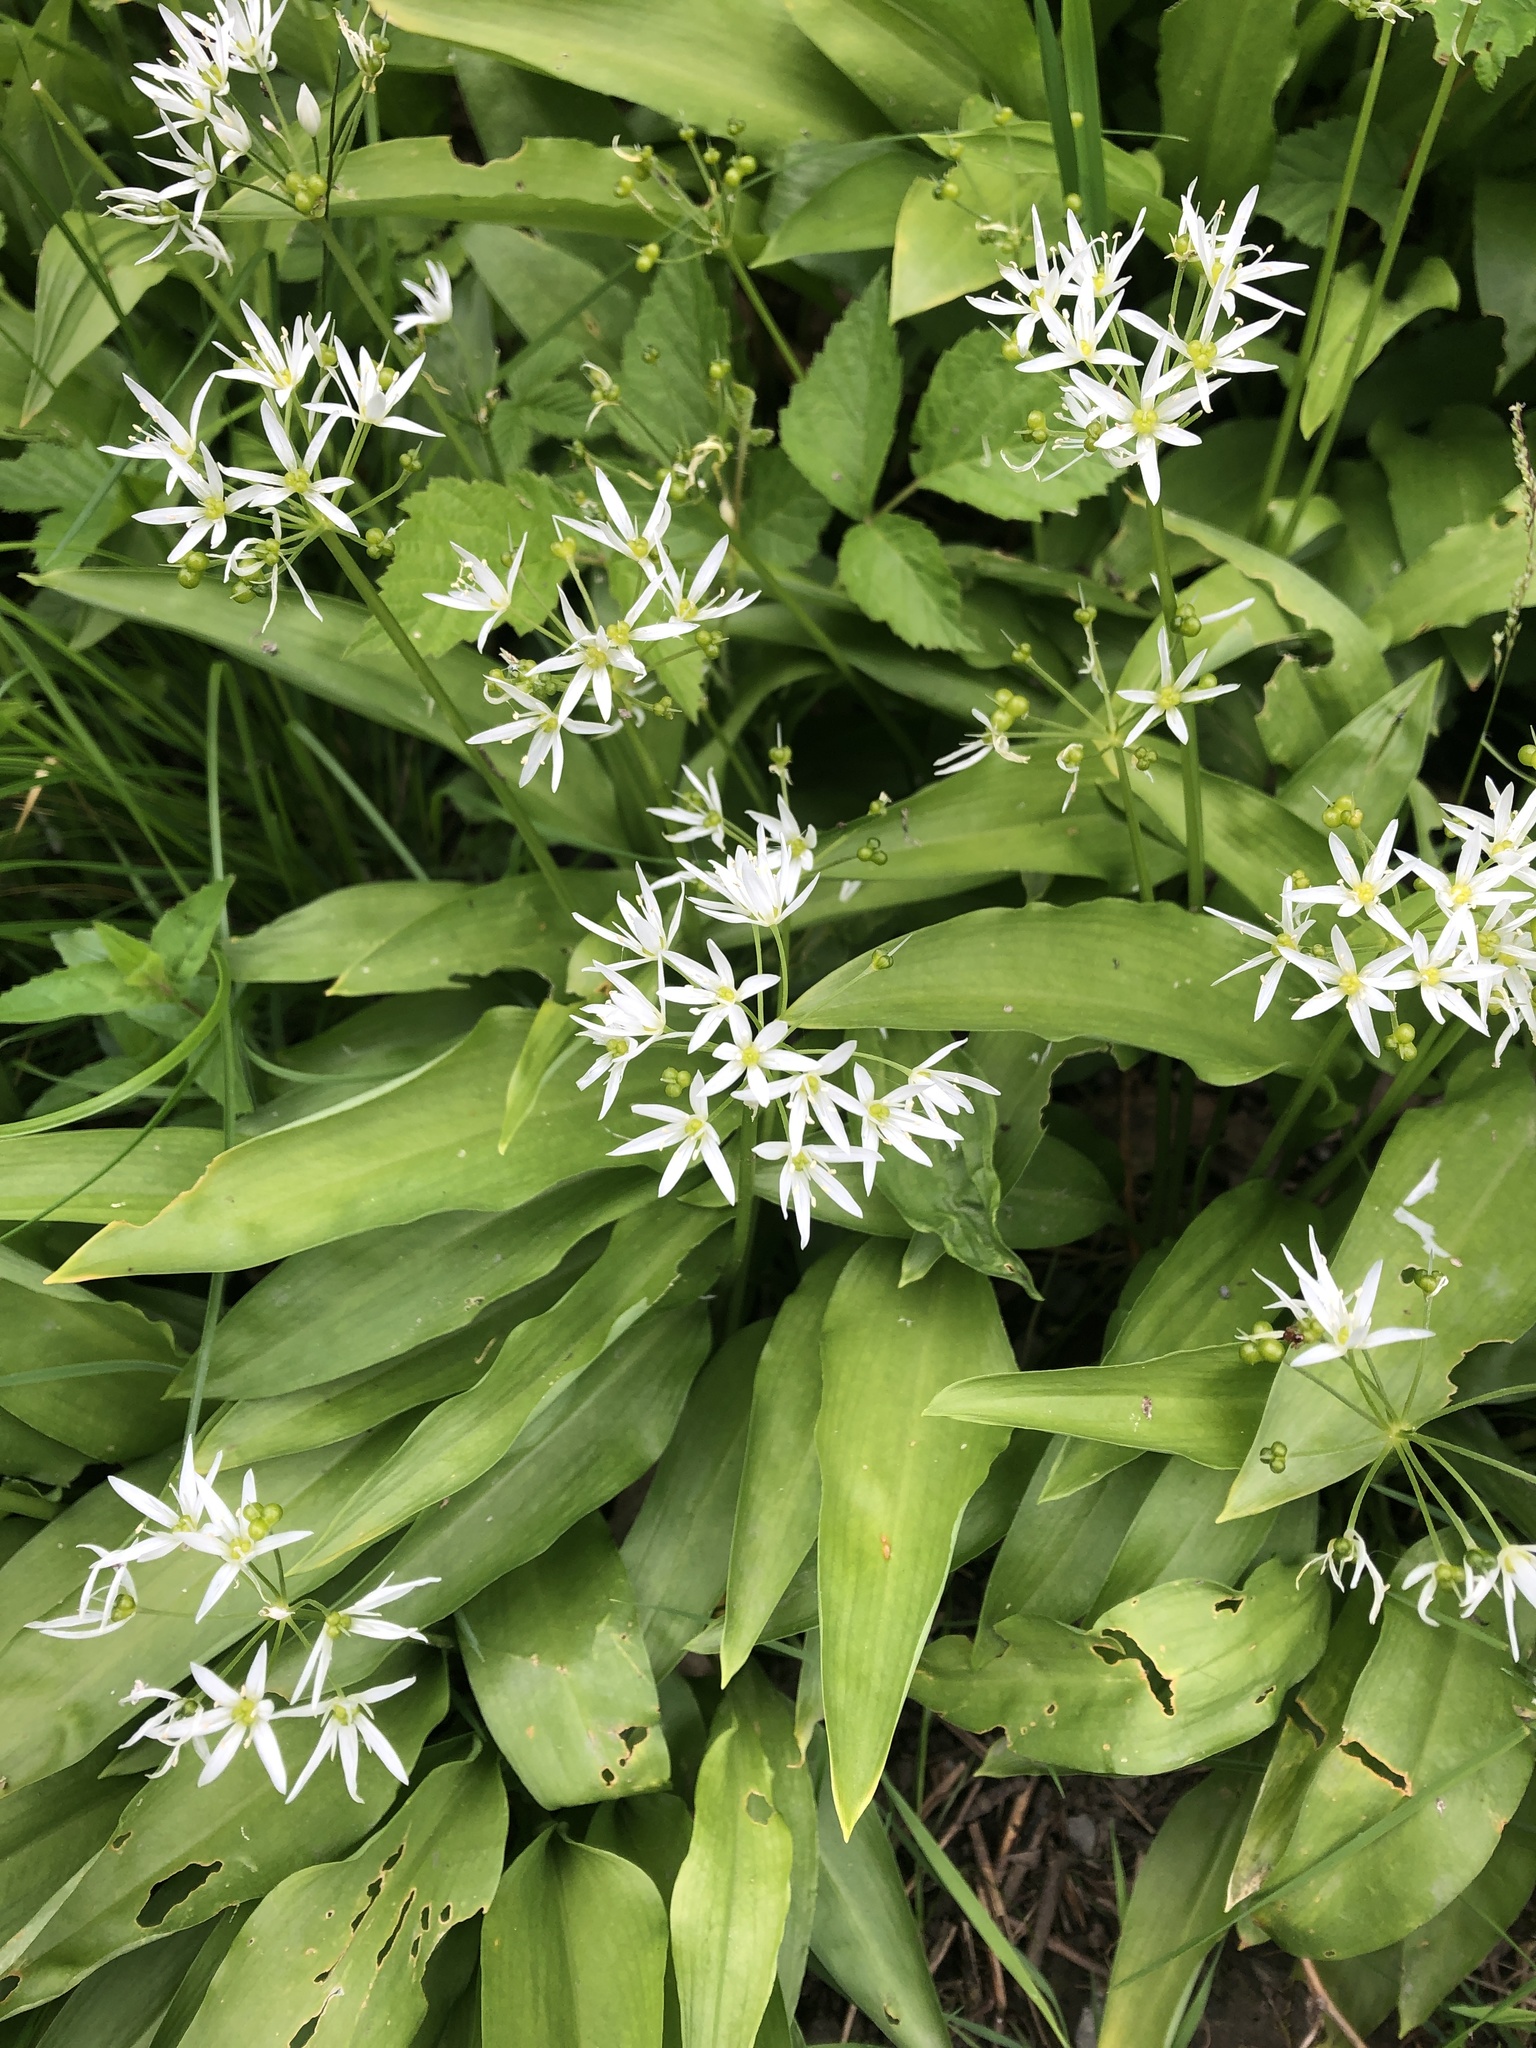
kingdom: Plantae
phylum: Tracheophyta
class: Liliopsida
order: Asparagales
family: Amaryllidaceae
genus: Allium
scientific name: Allium ursinum
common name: Ramsons
